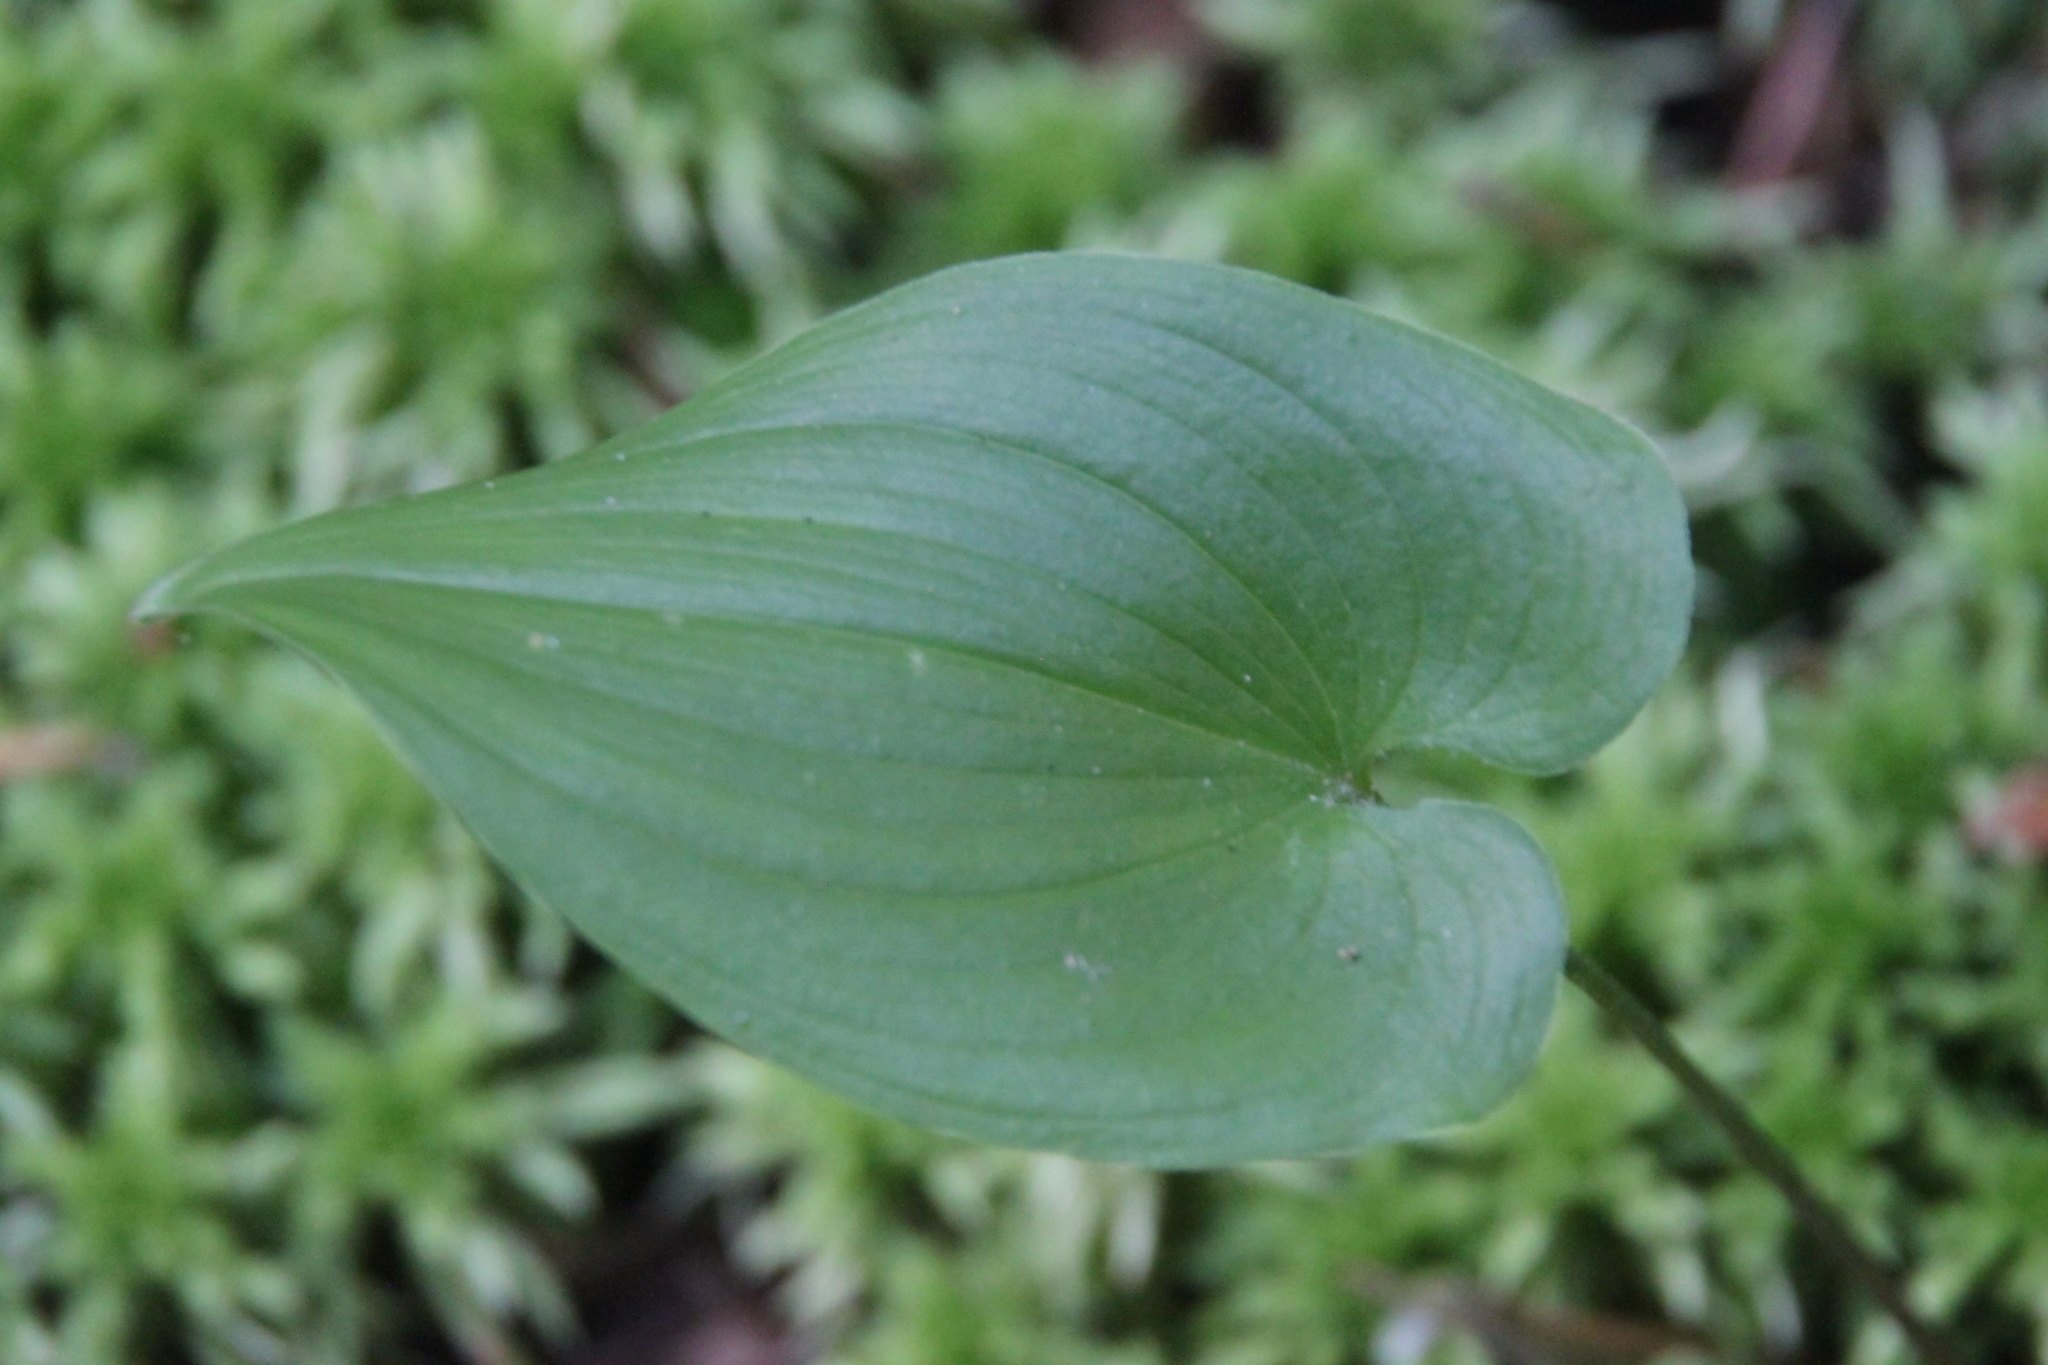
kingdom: Plantae
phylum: Tracheophyta
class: Liliopsida
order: Asparagales
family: Asparagaceae
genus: Maianthemum
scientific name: Maianthemum bifolium
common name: May lily
